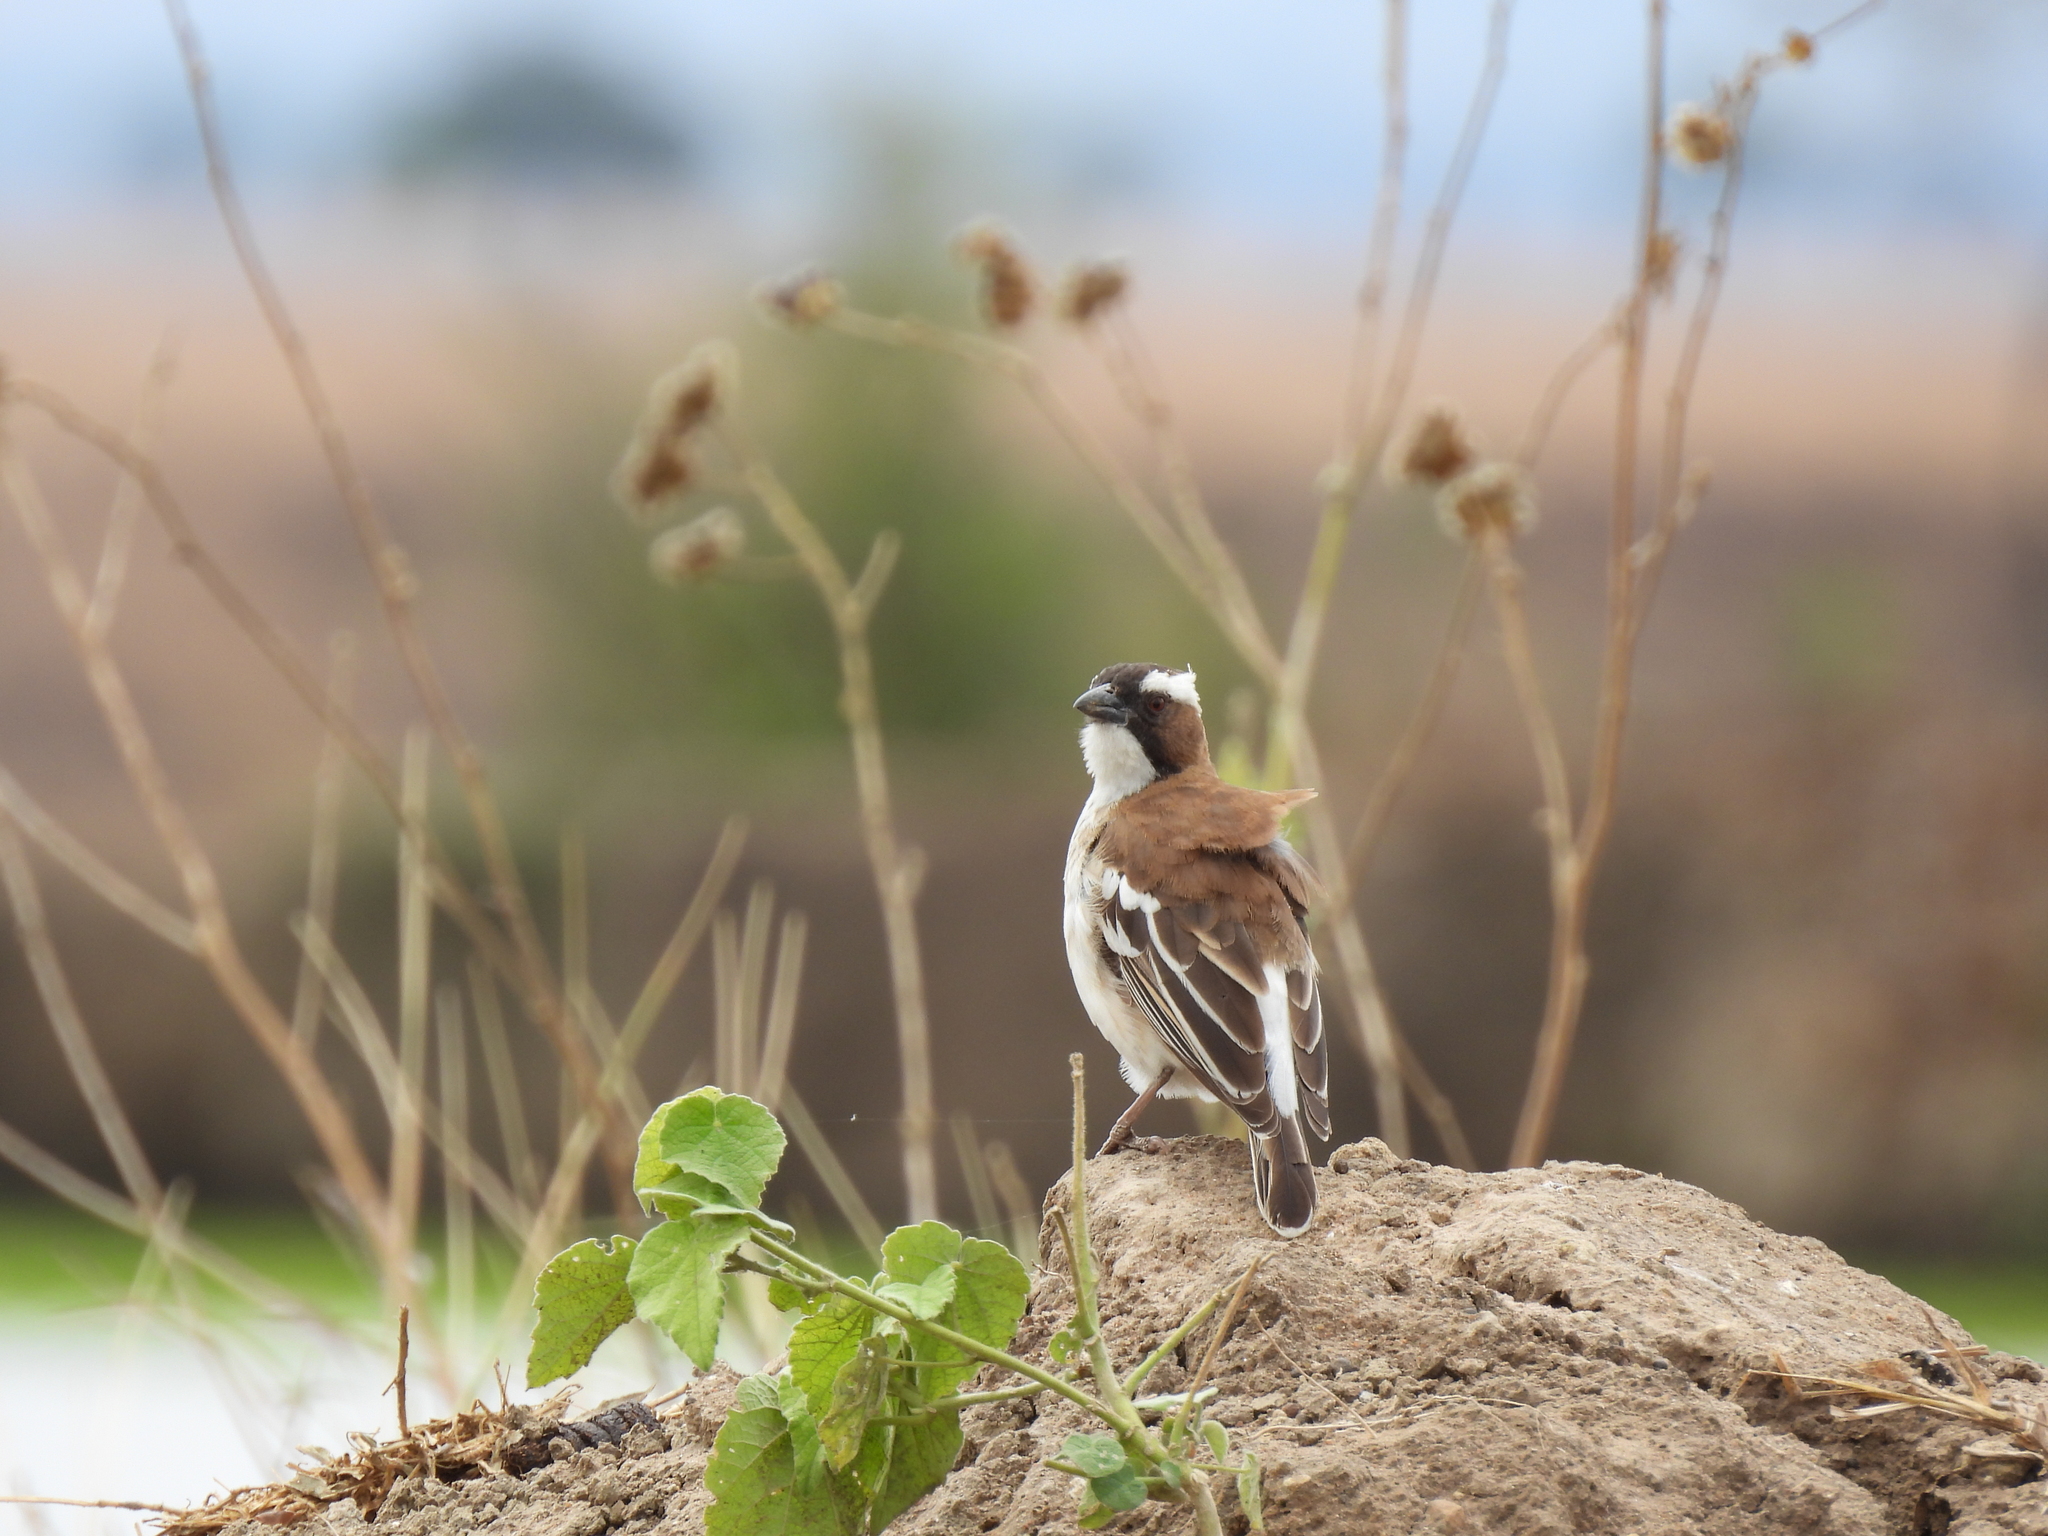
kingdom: Animalia
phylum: Chordata
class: Aves
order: Passeriformes
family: Passeridae
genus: Plocepasser
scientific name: Plocepasser mahali
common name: White-browed sparrow-weaver
